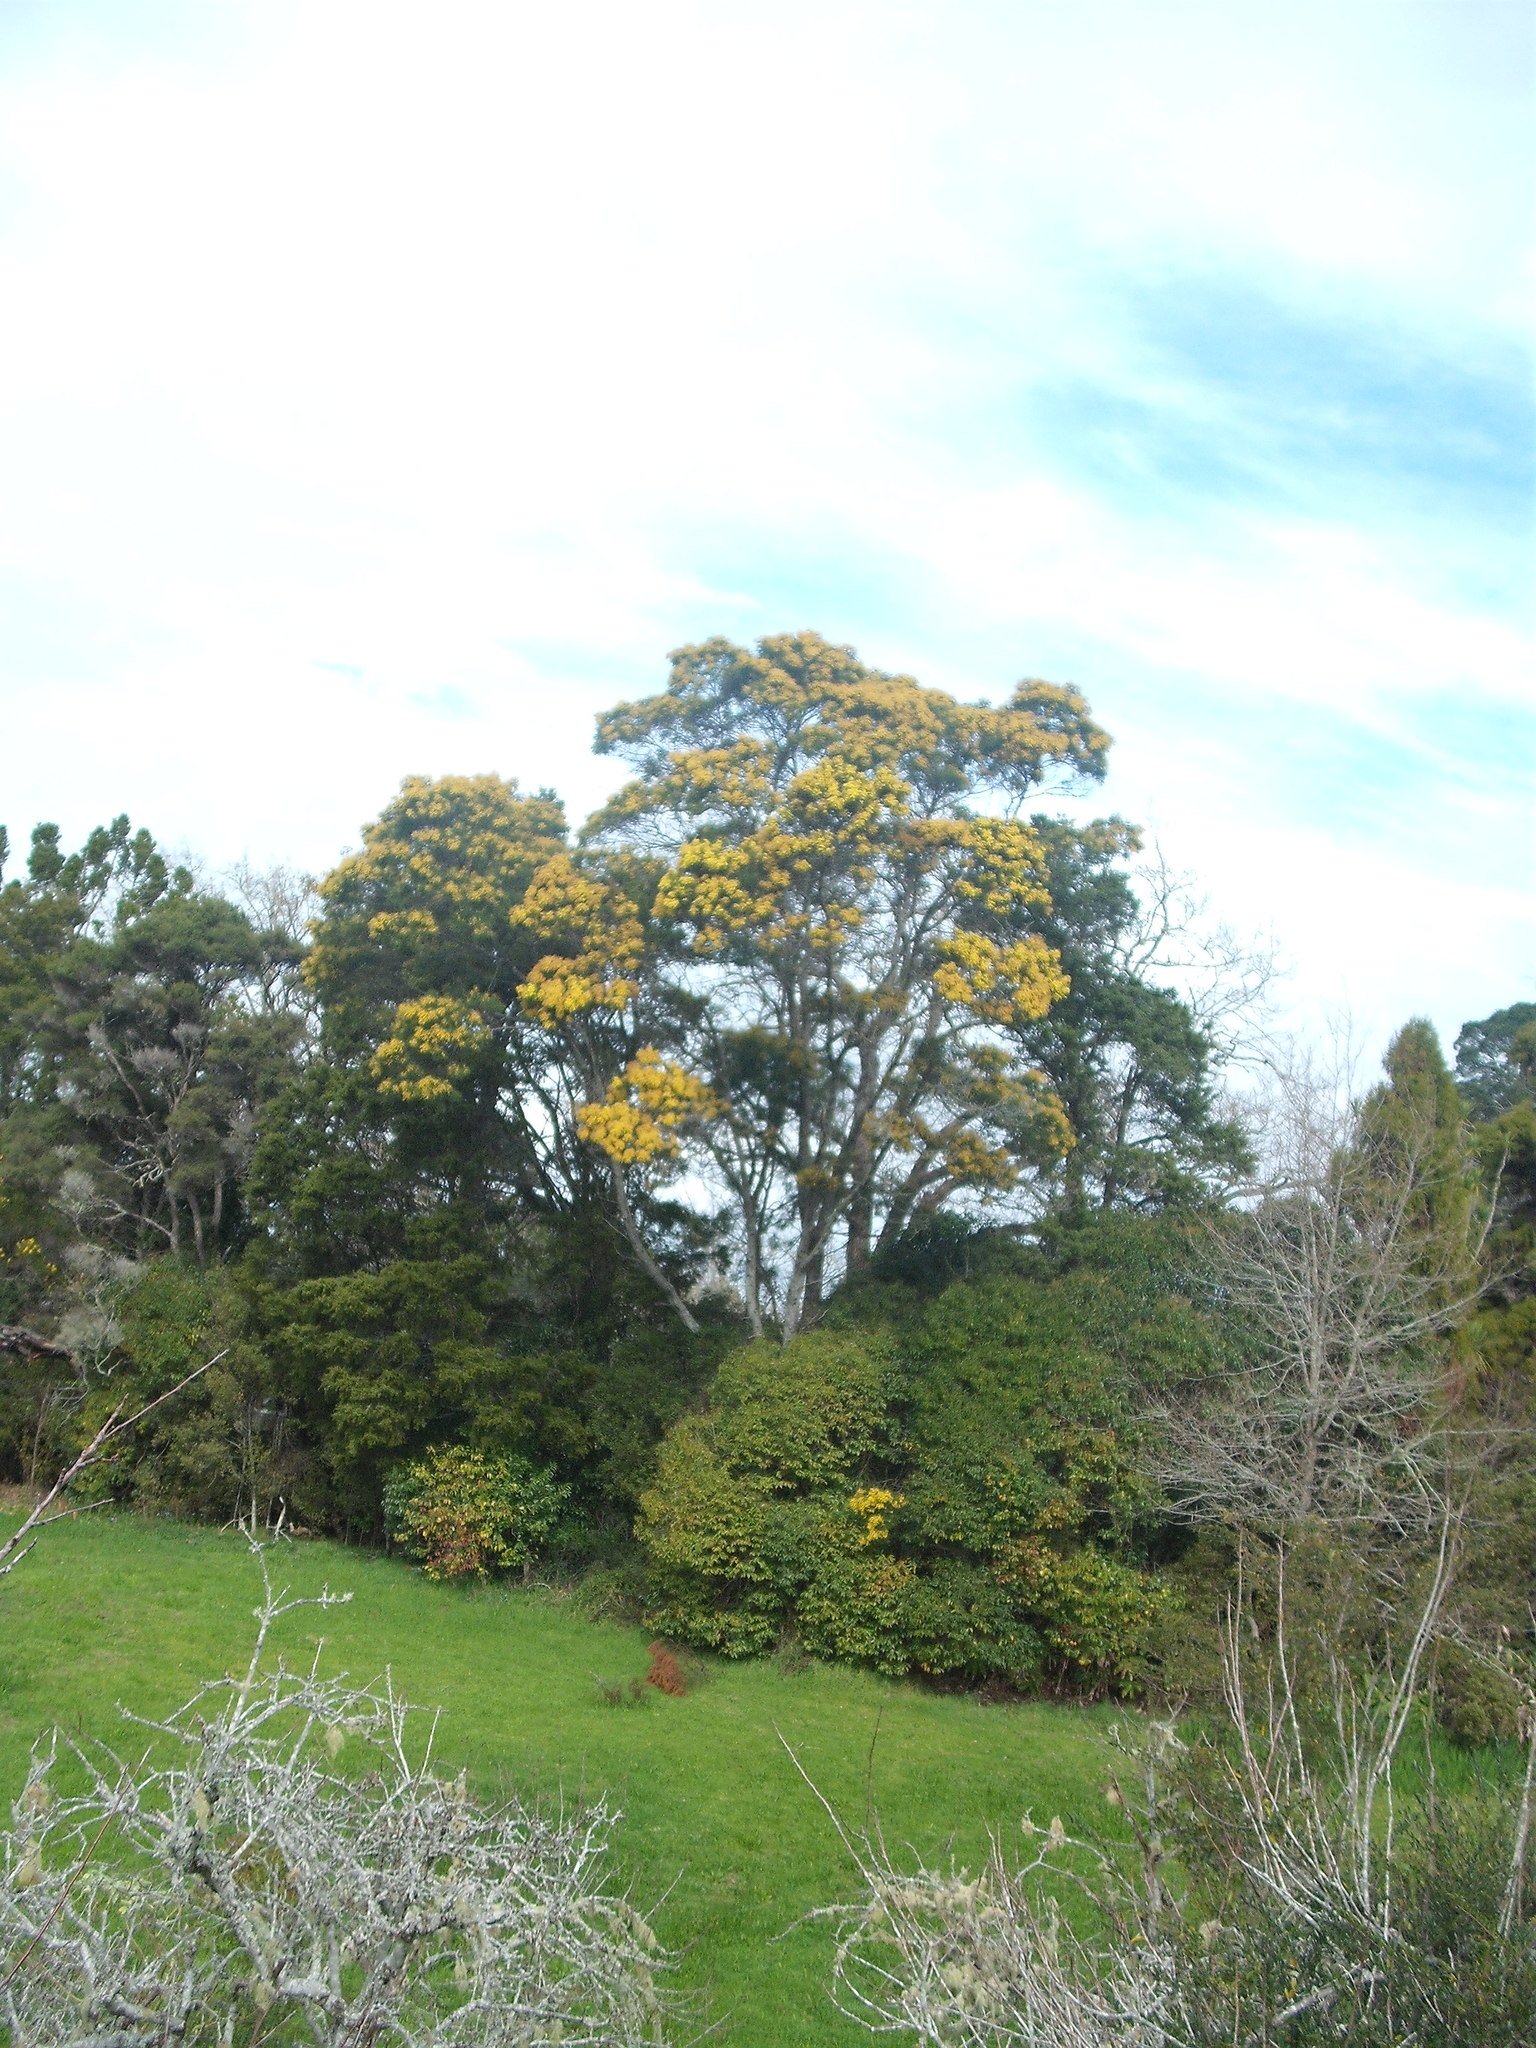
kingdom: Plantae
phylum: Tracheophyta
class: Magnoliopsida
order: Fabales
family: Fabaceae
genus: Acacia
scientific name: Acacia decurrens
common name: Green wattle
